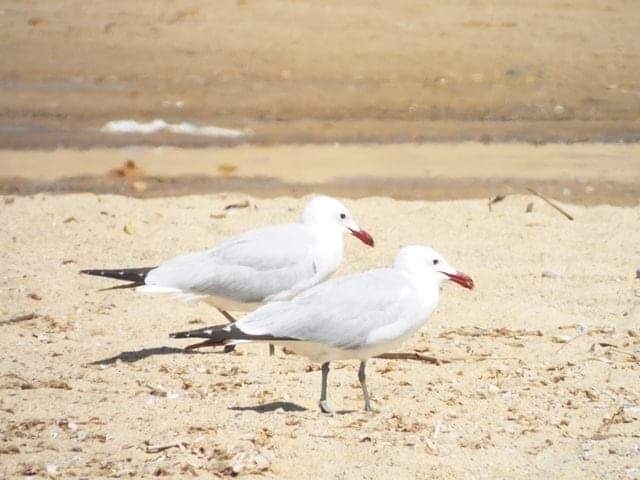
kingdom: Animalia
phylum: Chordata
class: Aves
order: Charadriiformes
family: Laridae
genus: Ichthyaetus
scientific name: Ichthyaetus audouinii
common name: Audouin's gull
